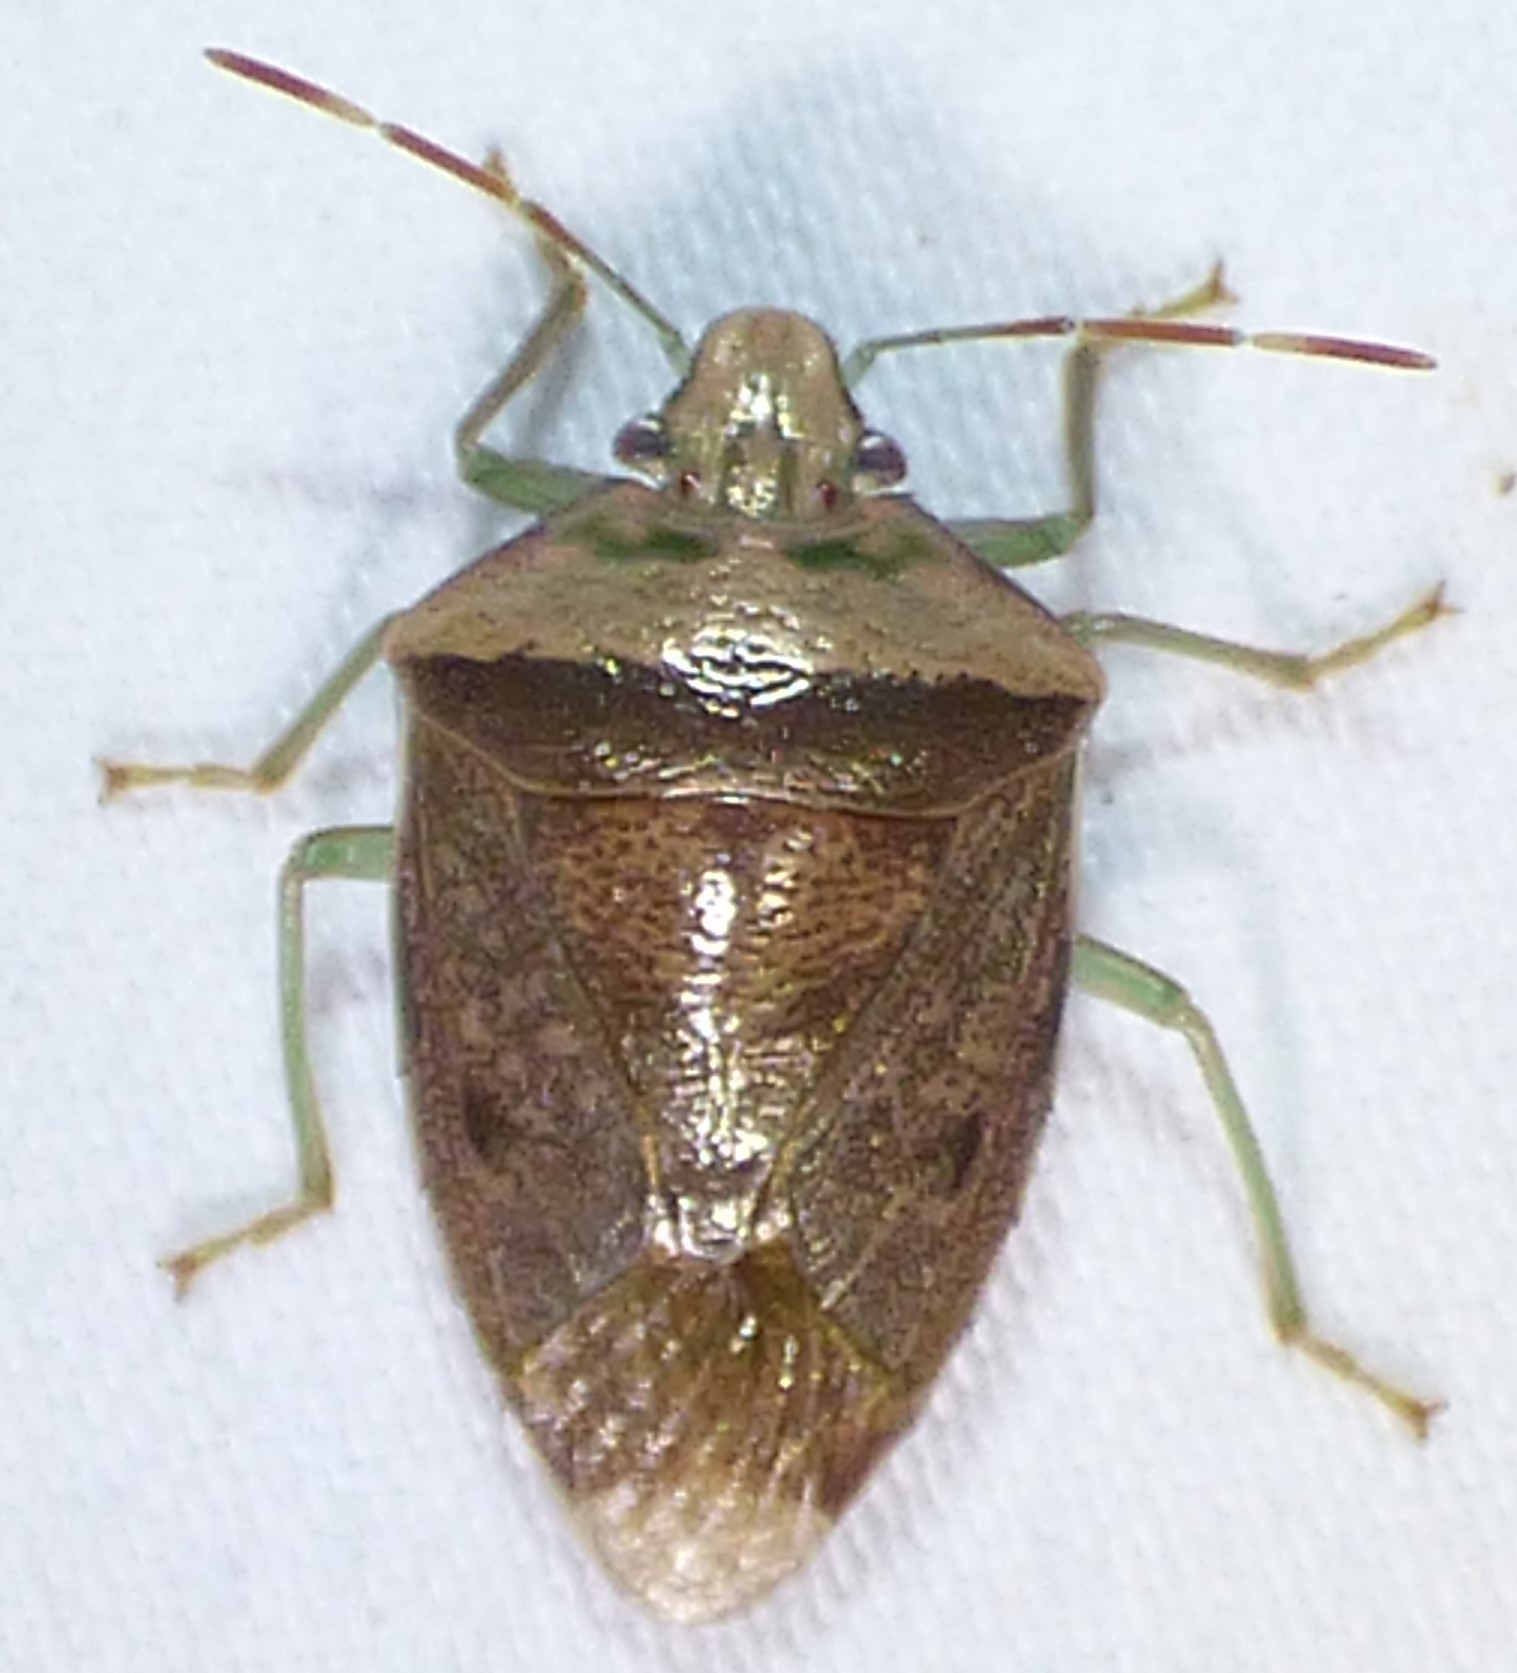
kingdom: Animalia
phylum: Arthropoda
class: Insecta
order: Hemiptera
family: Pentatomidae
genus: Banasa
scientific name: Banasa calva
